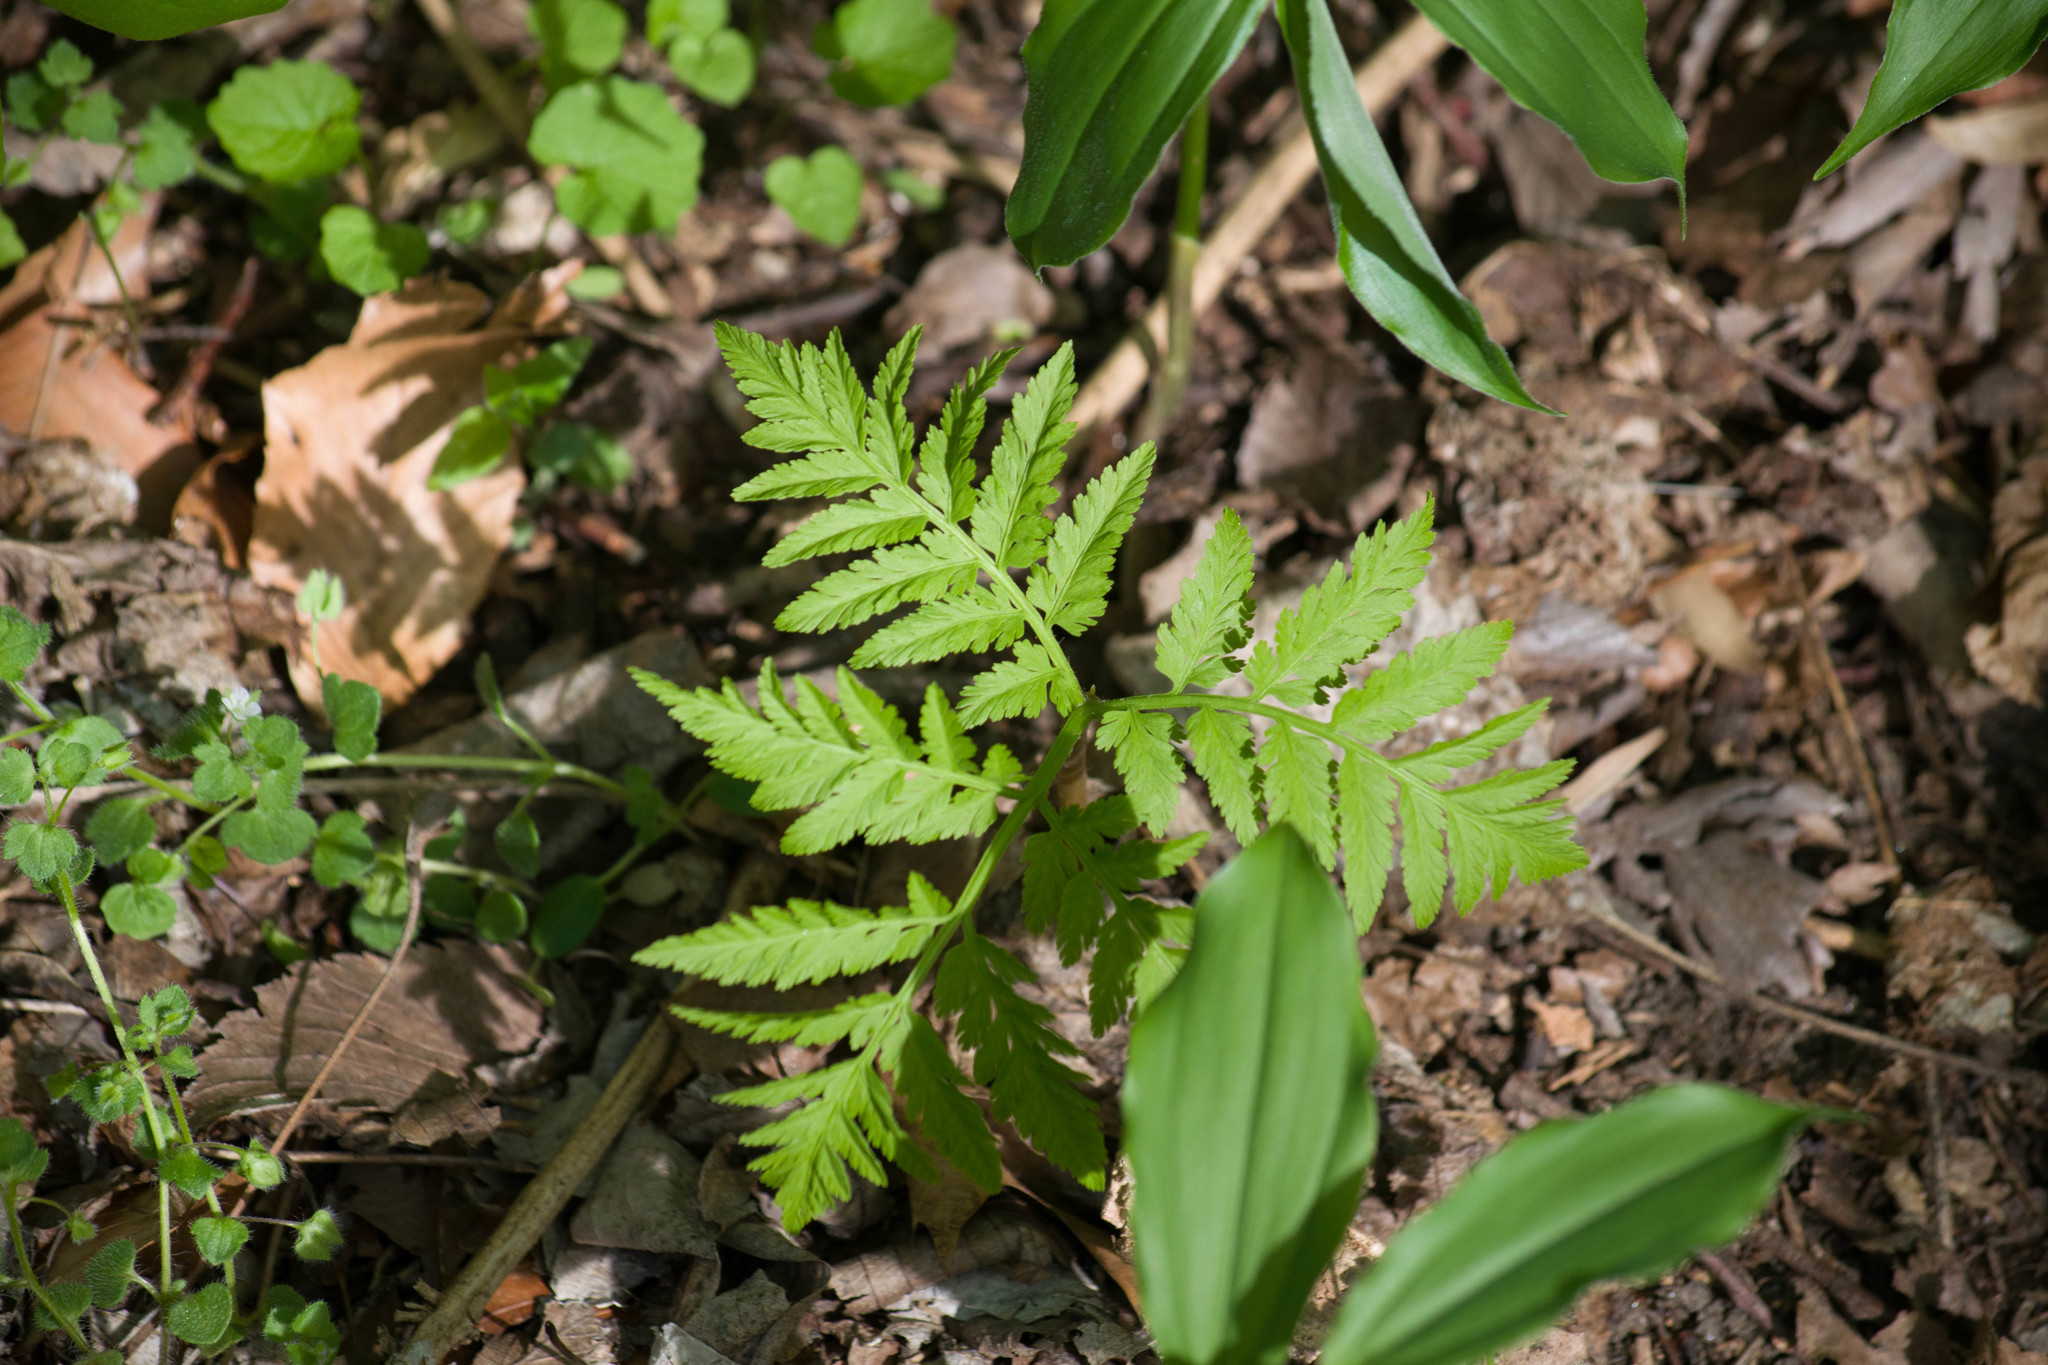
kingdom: Plantae
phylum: Tracheophyta
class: Polypodiopsida
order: Ophioglossales
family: Ophioglossaceae
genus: Botrypus
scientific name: Botrypus virginianus
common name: Common grapefern
